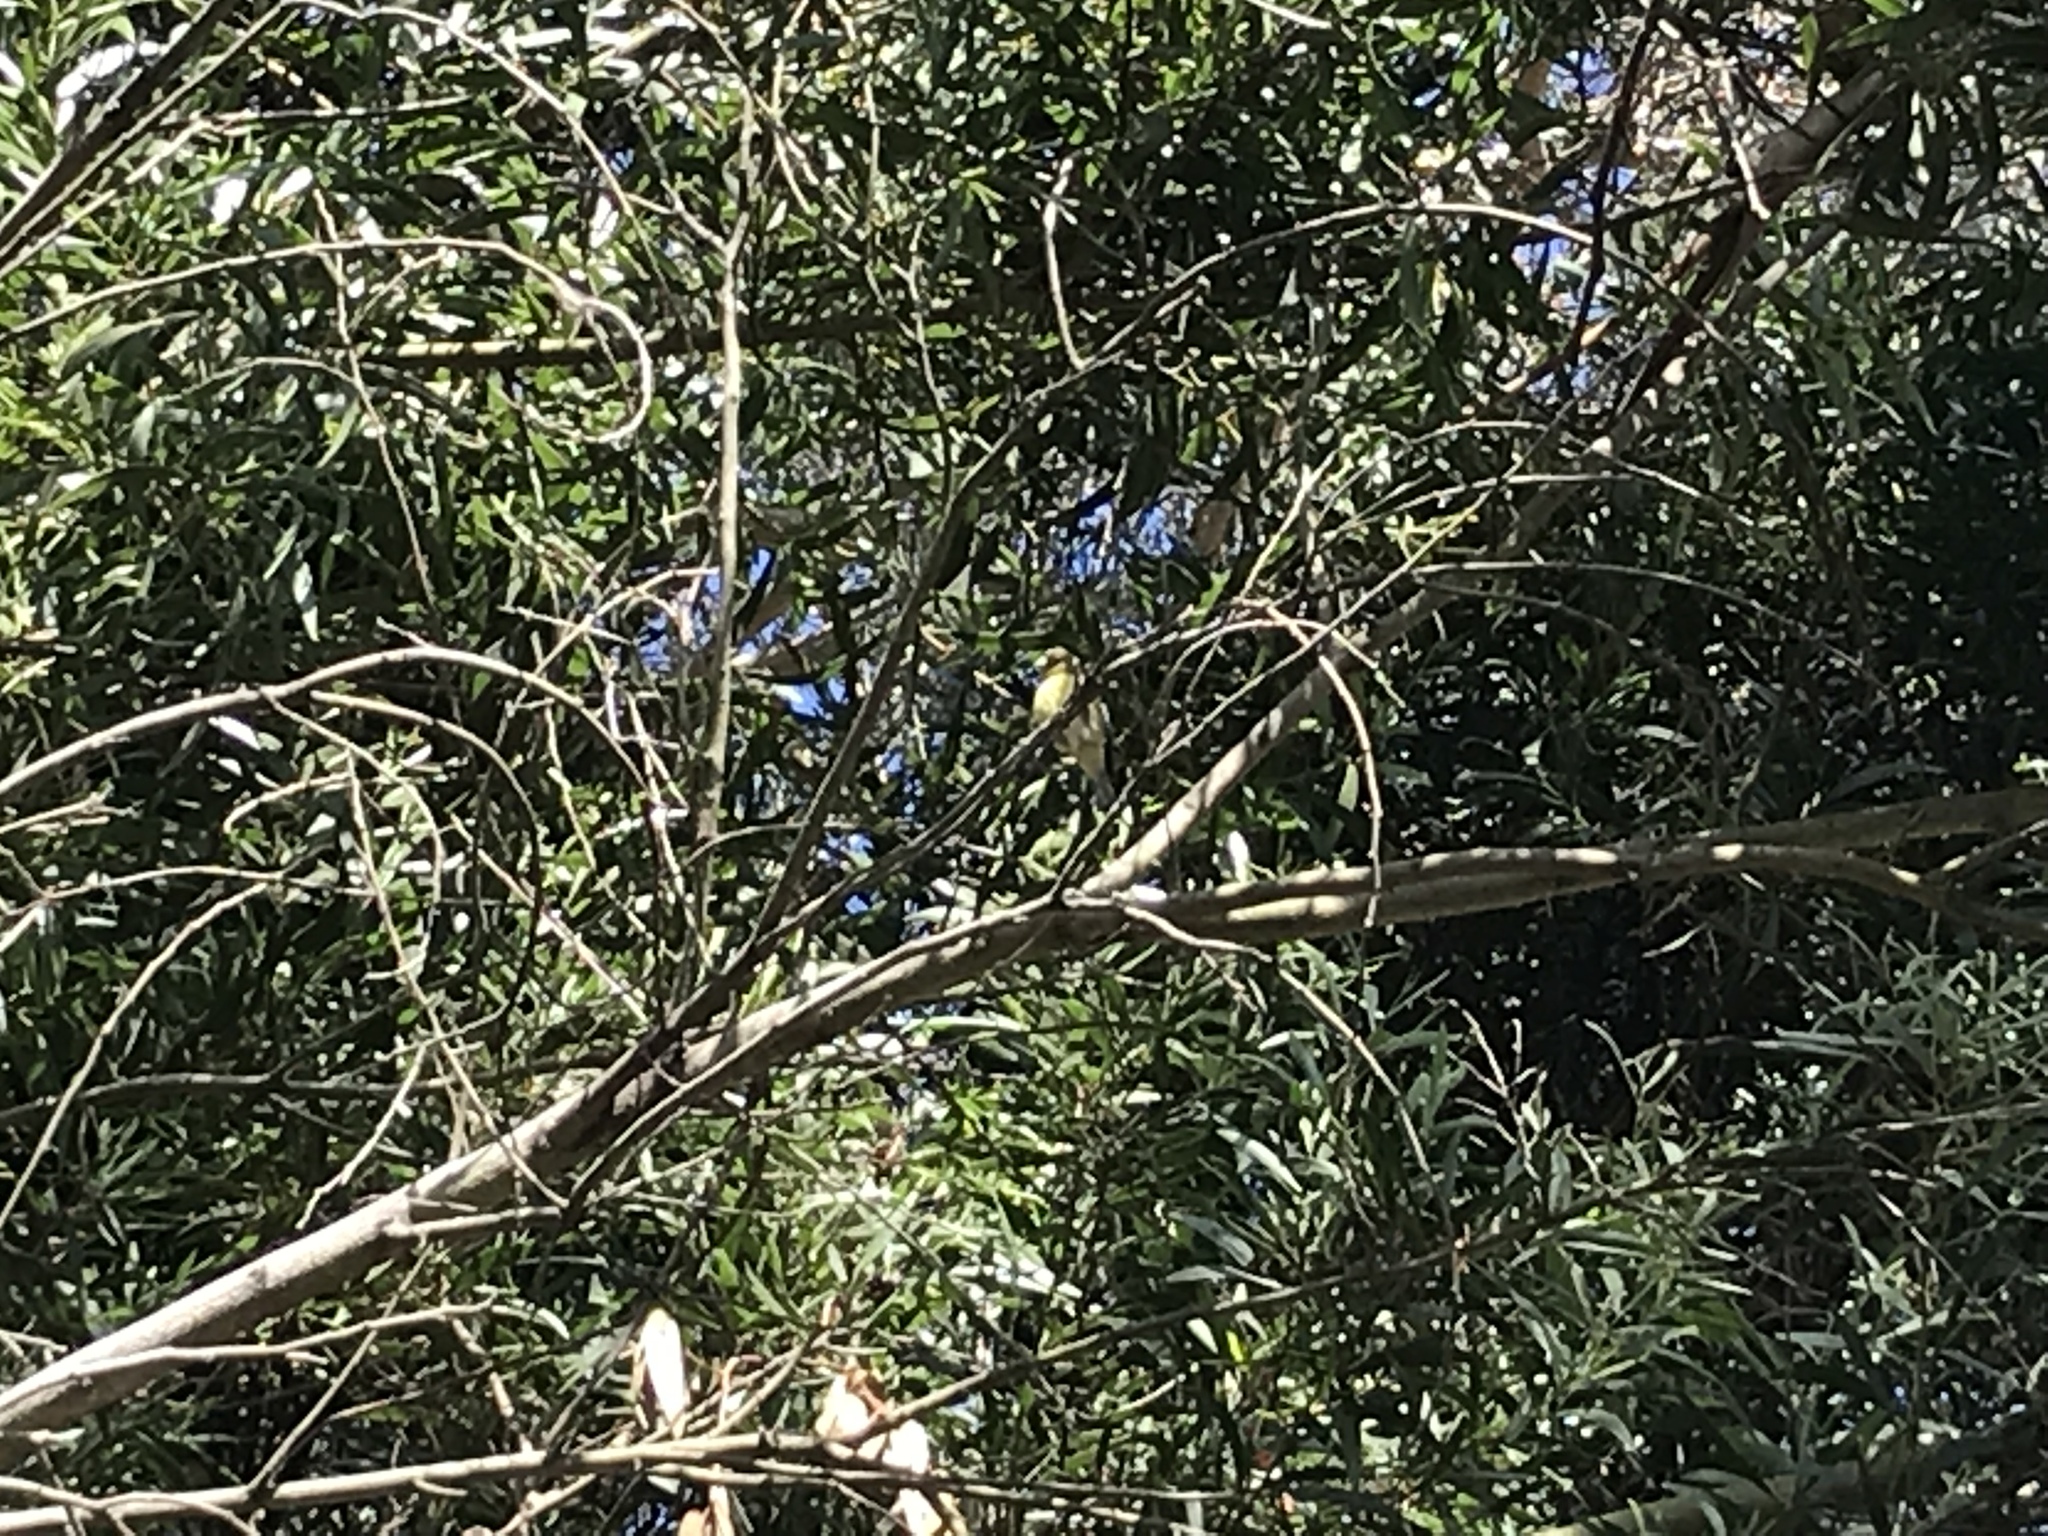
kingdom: Animalia
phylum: Chordata
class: Aves
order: Passeriformes
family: Fringillidae
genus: Spinus
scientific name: Spinus psaltria
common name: Lesser goldfinch
